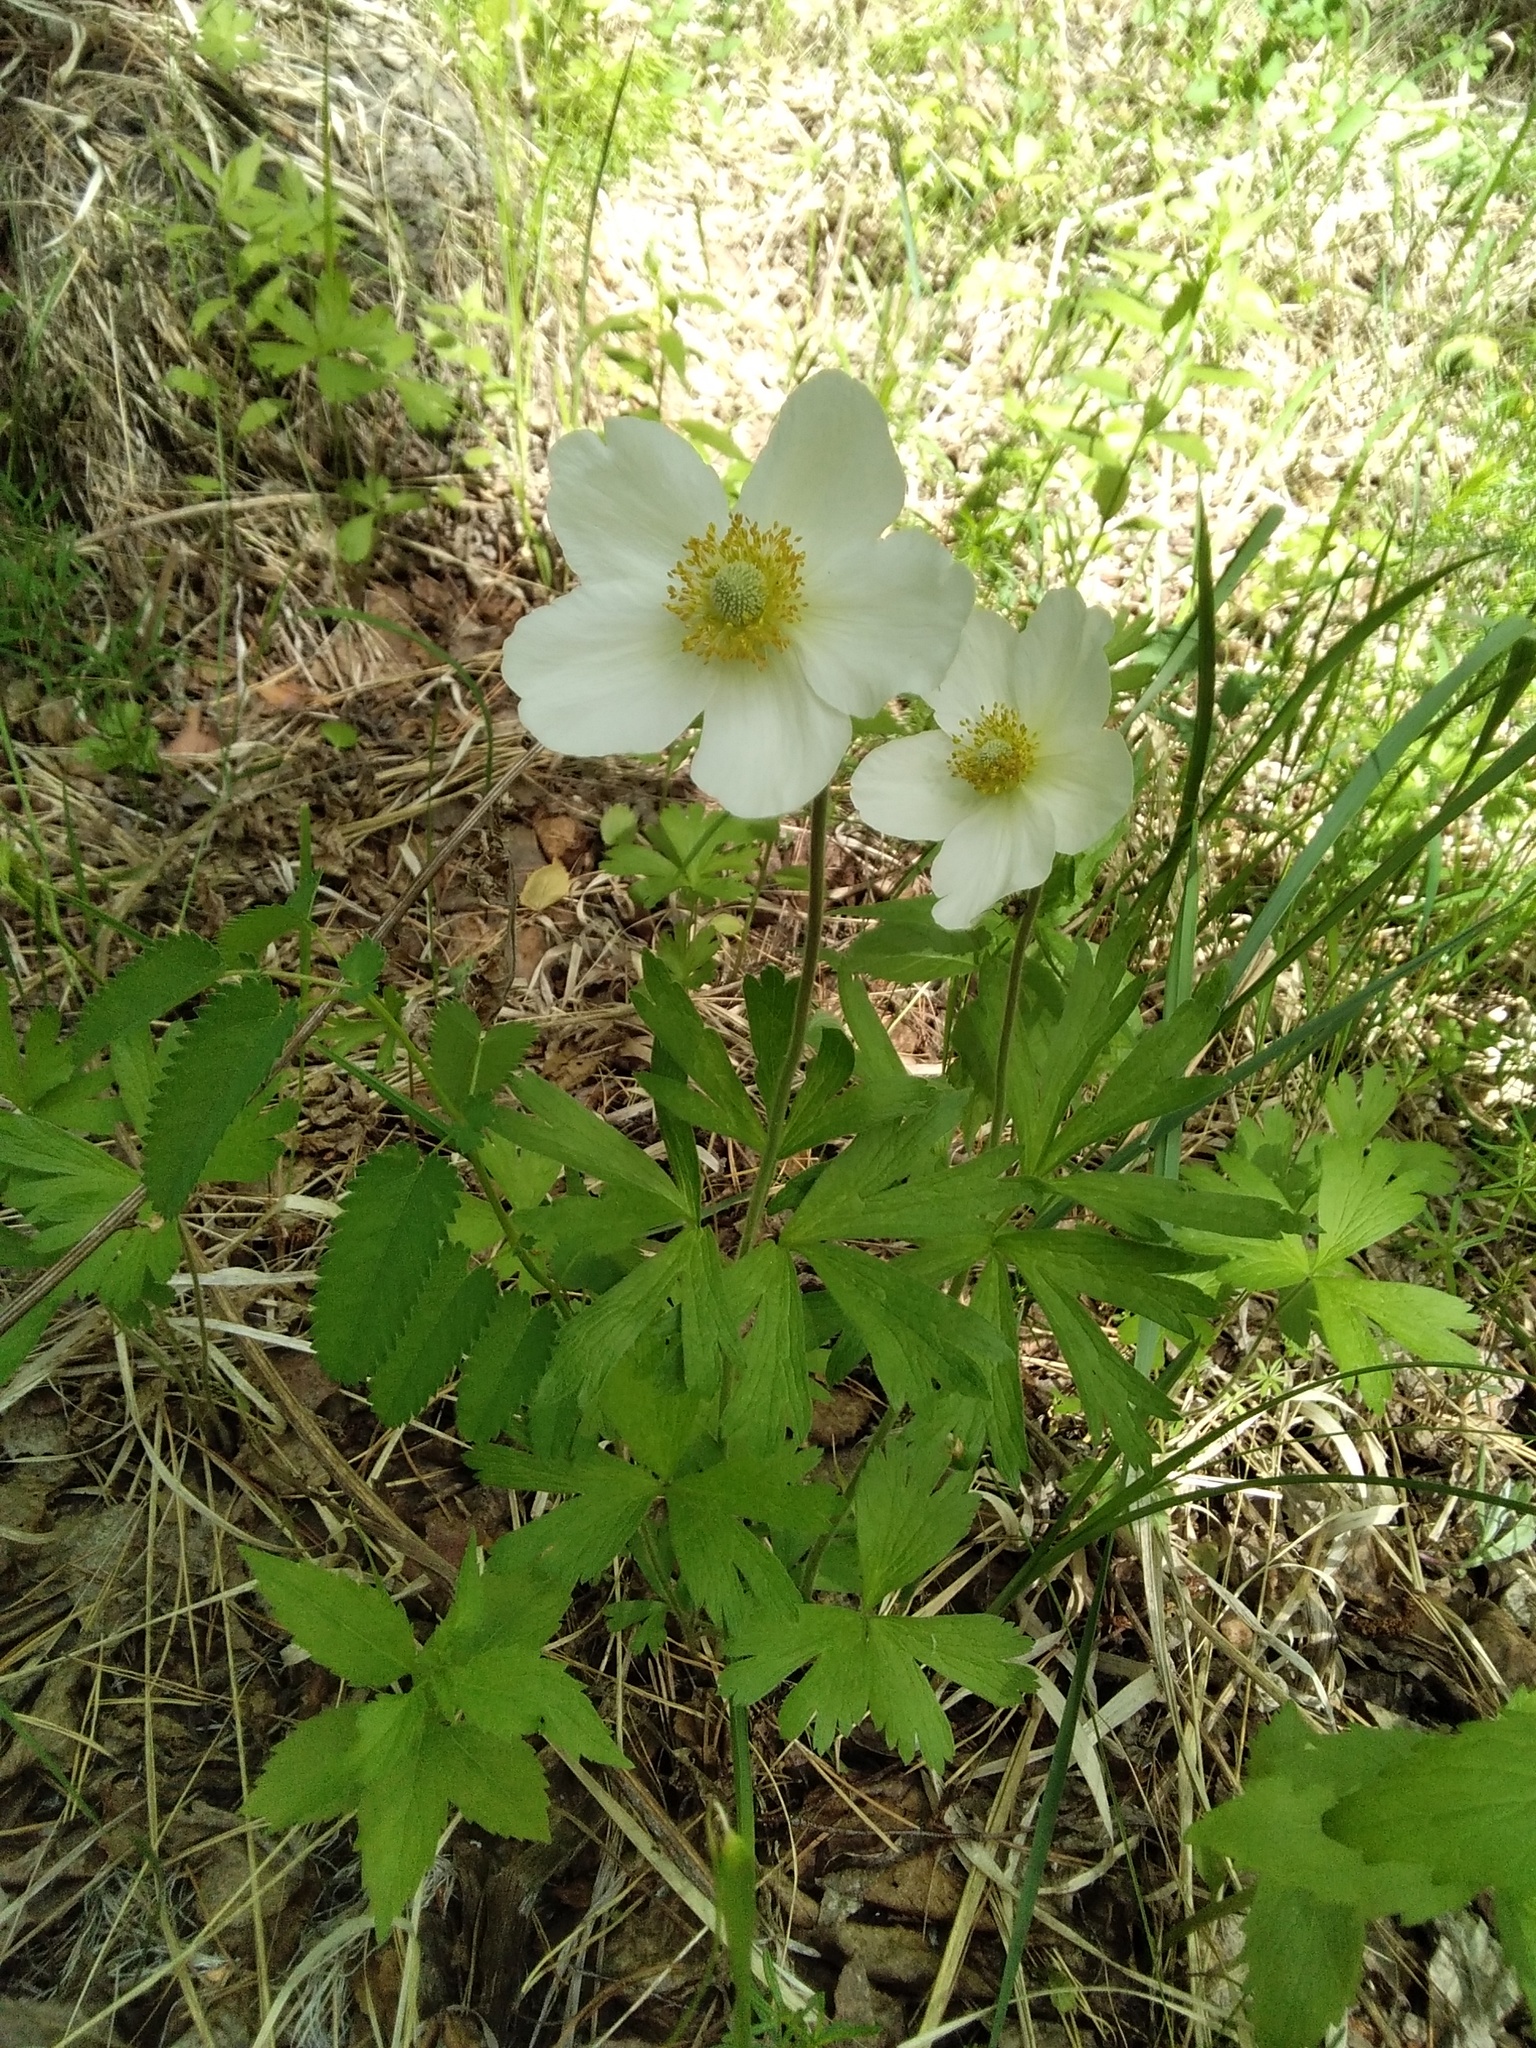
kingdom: Plantae
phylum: Tracheophyta
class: Magnoliopsida
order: Ranunculales
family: Ranunculaceae
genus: Anemone
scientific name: Anemone sylvestris
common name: Snowdrop anemone
